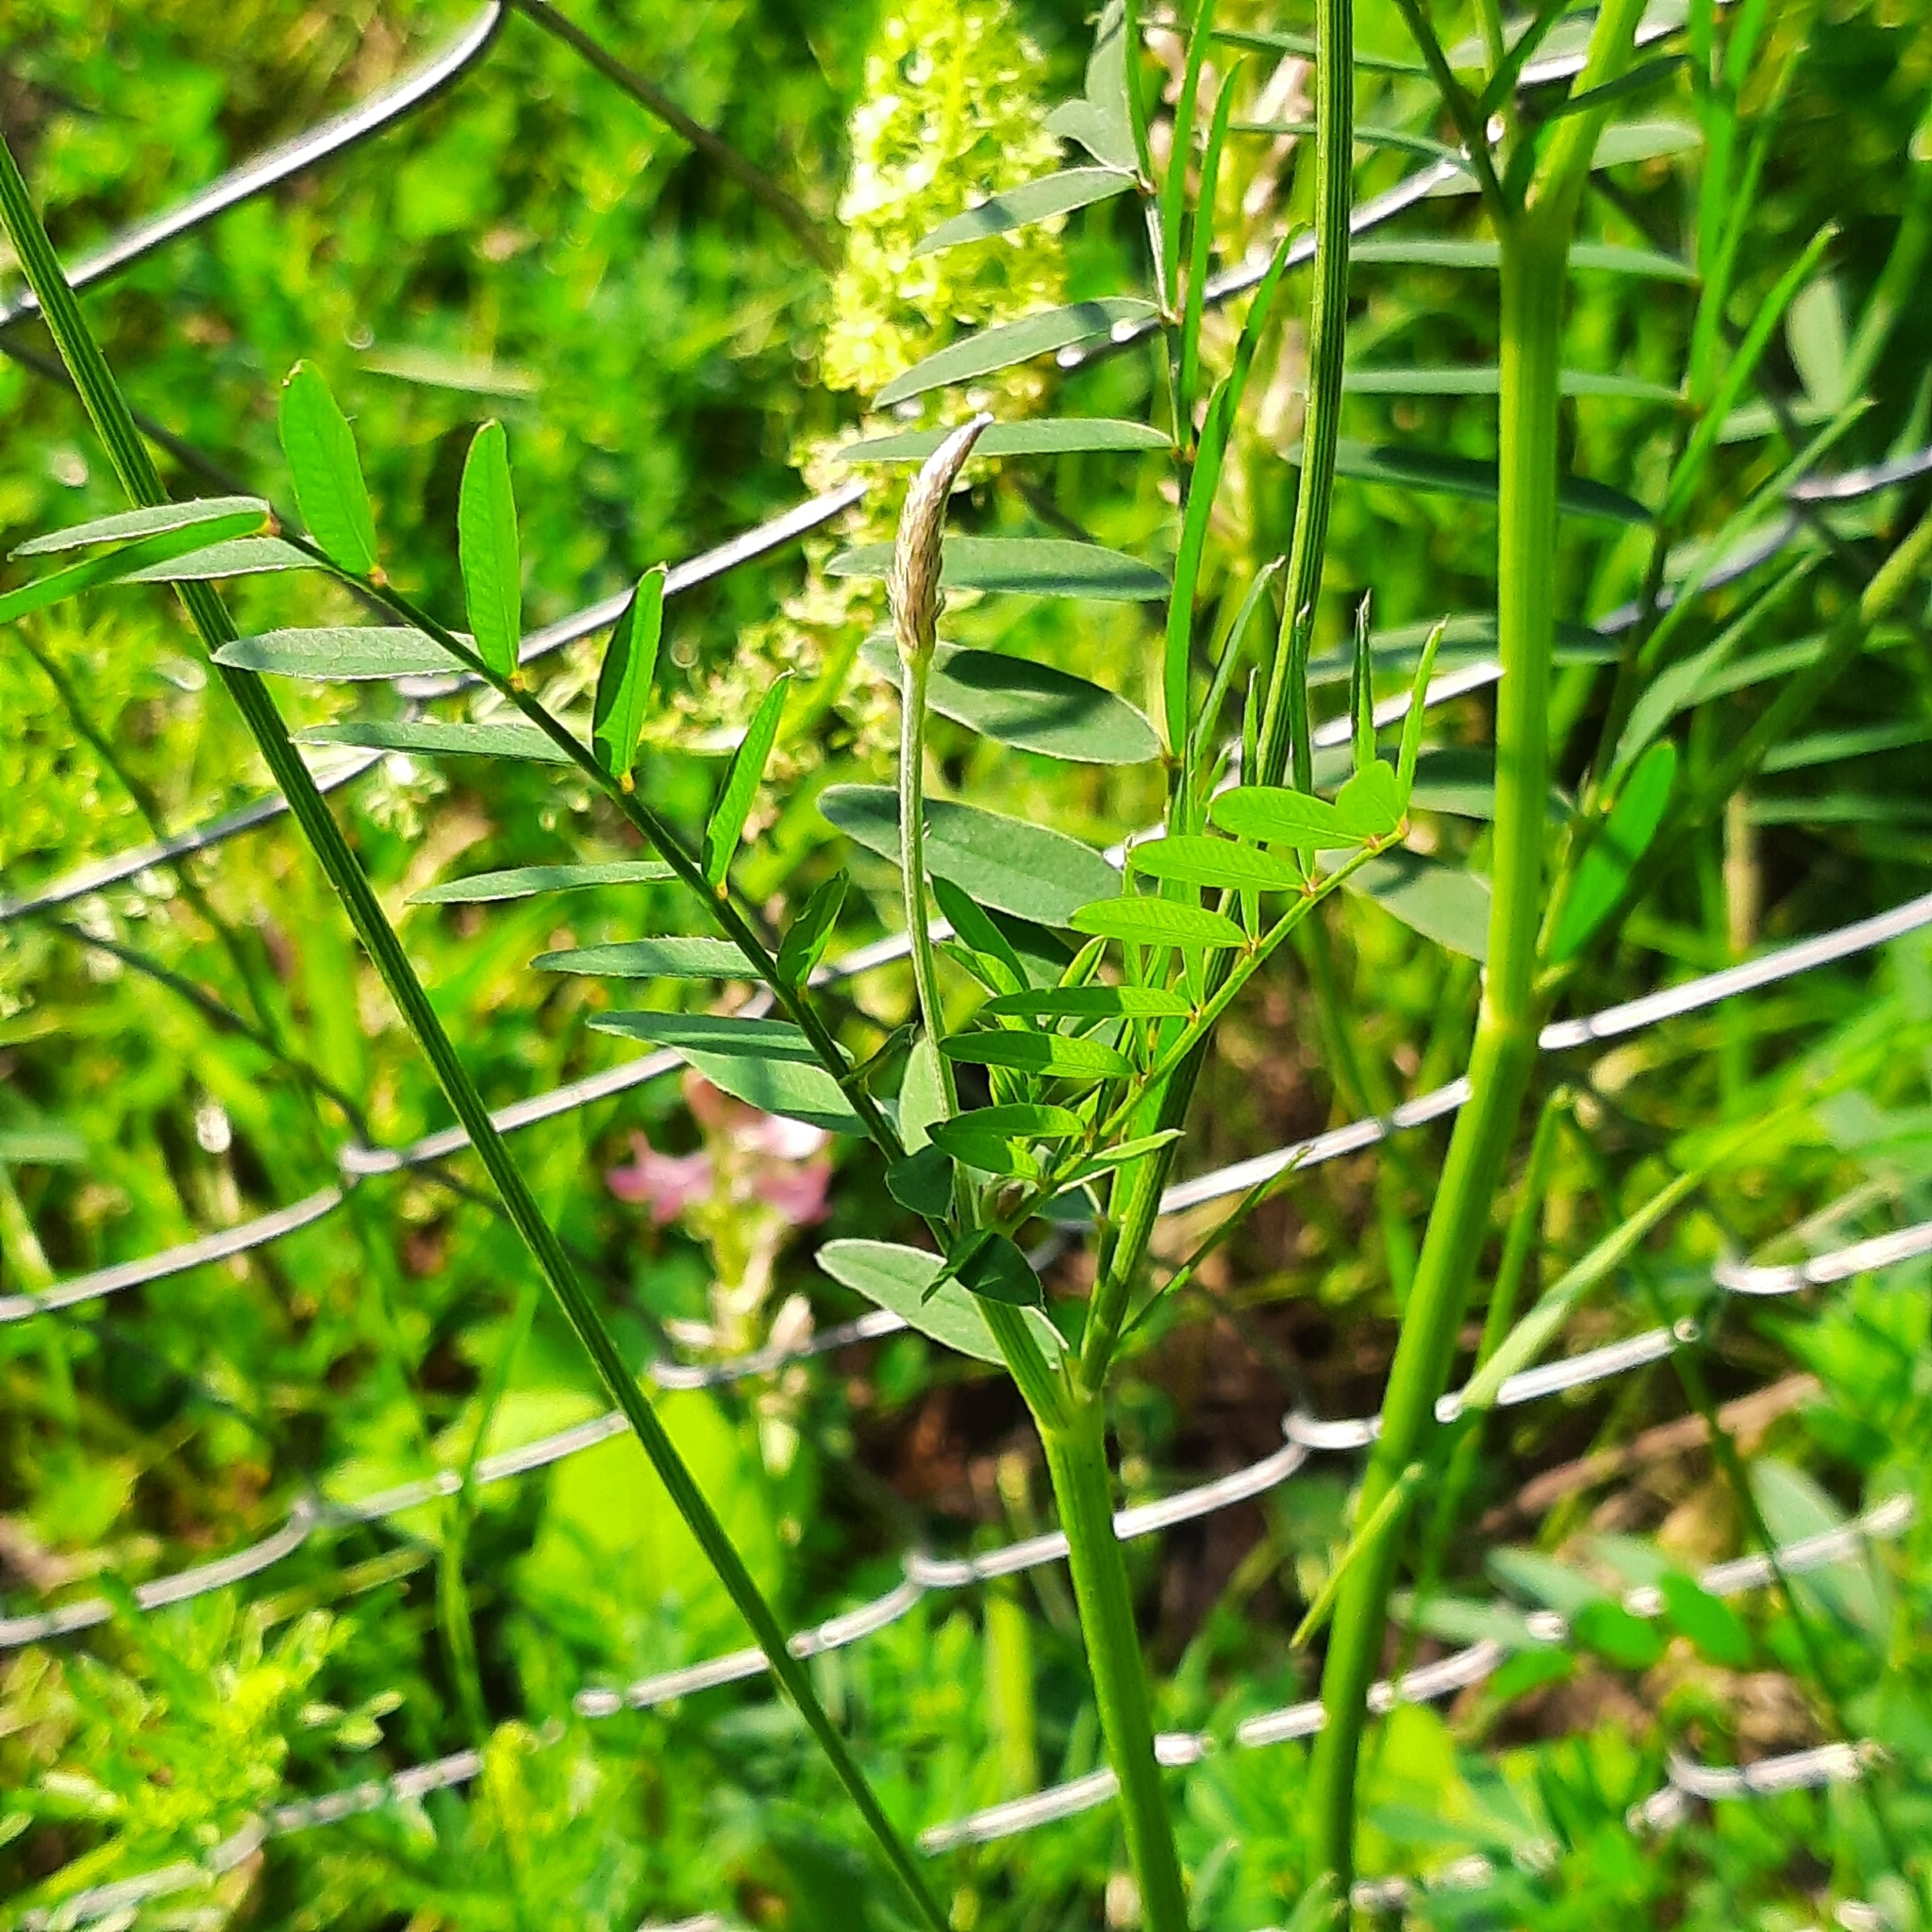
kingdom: Plantae
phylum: Tracheophyta
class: Magnoliopsida
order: Fabales
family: Fabaceae
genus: Onobrychis
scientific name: Onobrychis viciifolia
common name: Sainfoin
